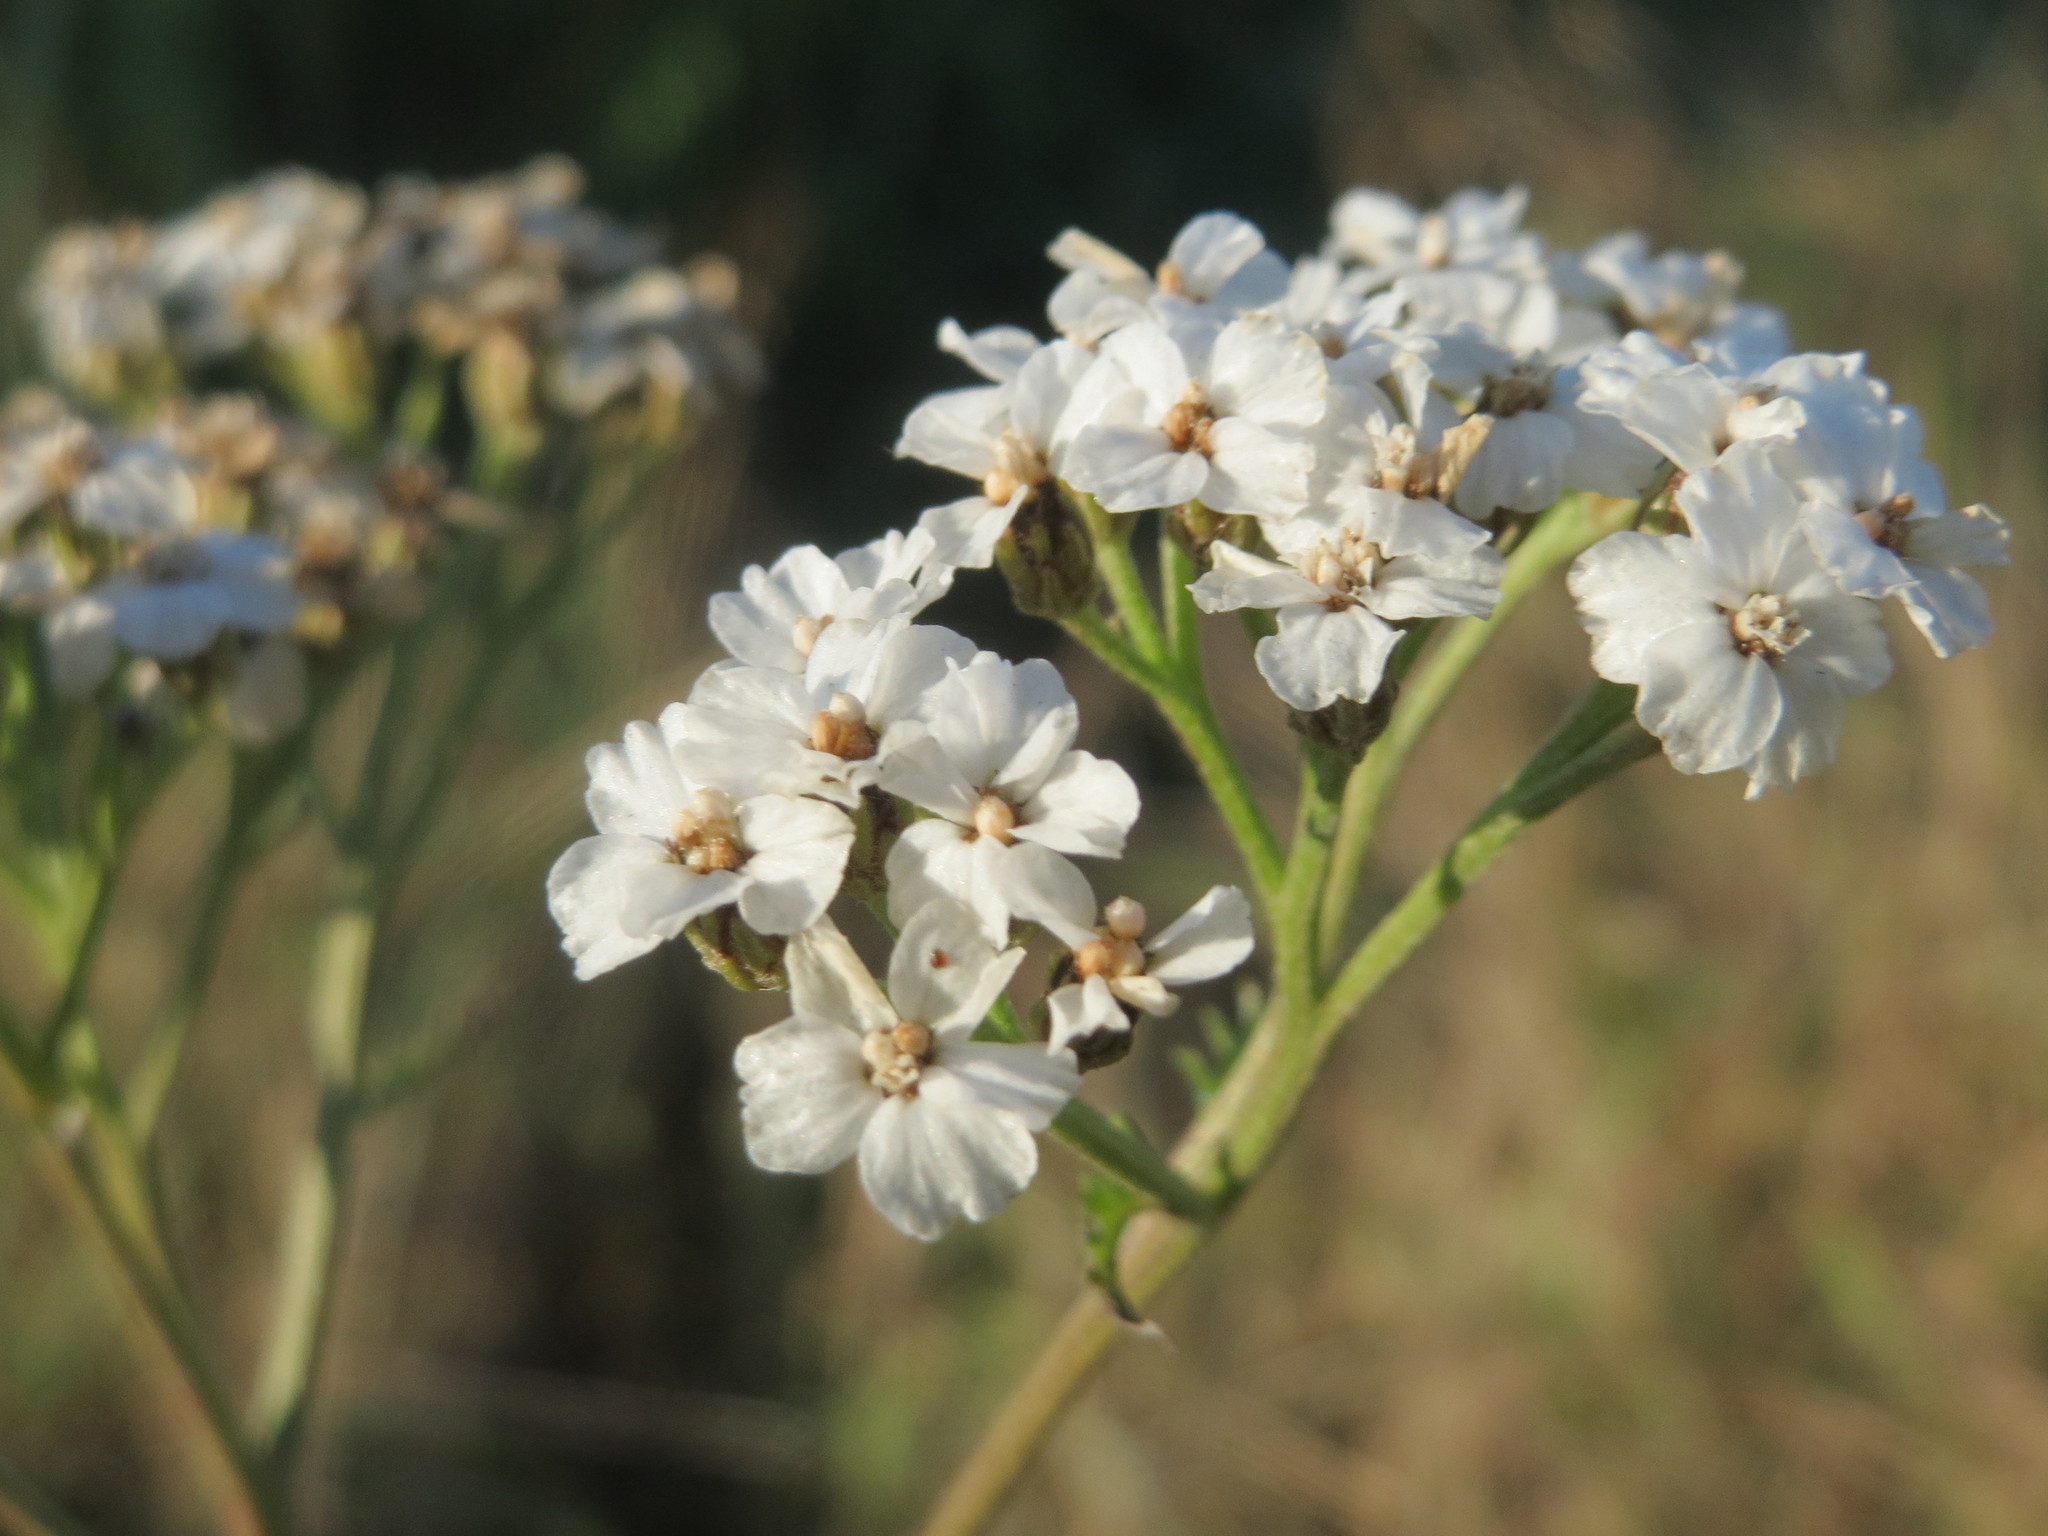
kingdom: Plantae
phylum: Tracheophyta
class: Magnoliopsida
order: Asterales
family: Asteraceae
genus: Achillea
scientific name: Achillea millefolium
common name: Yarrow
